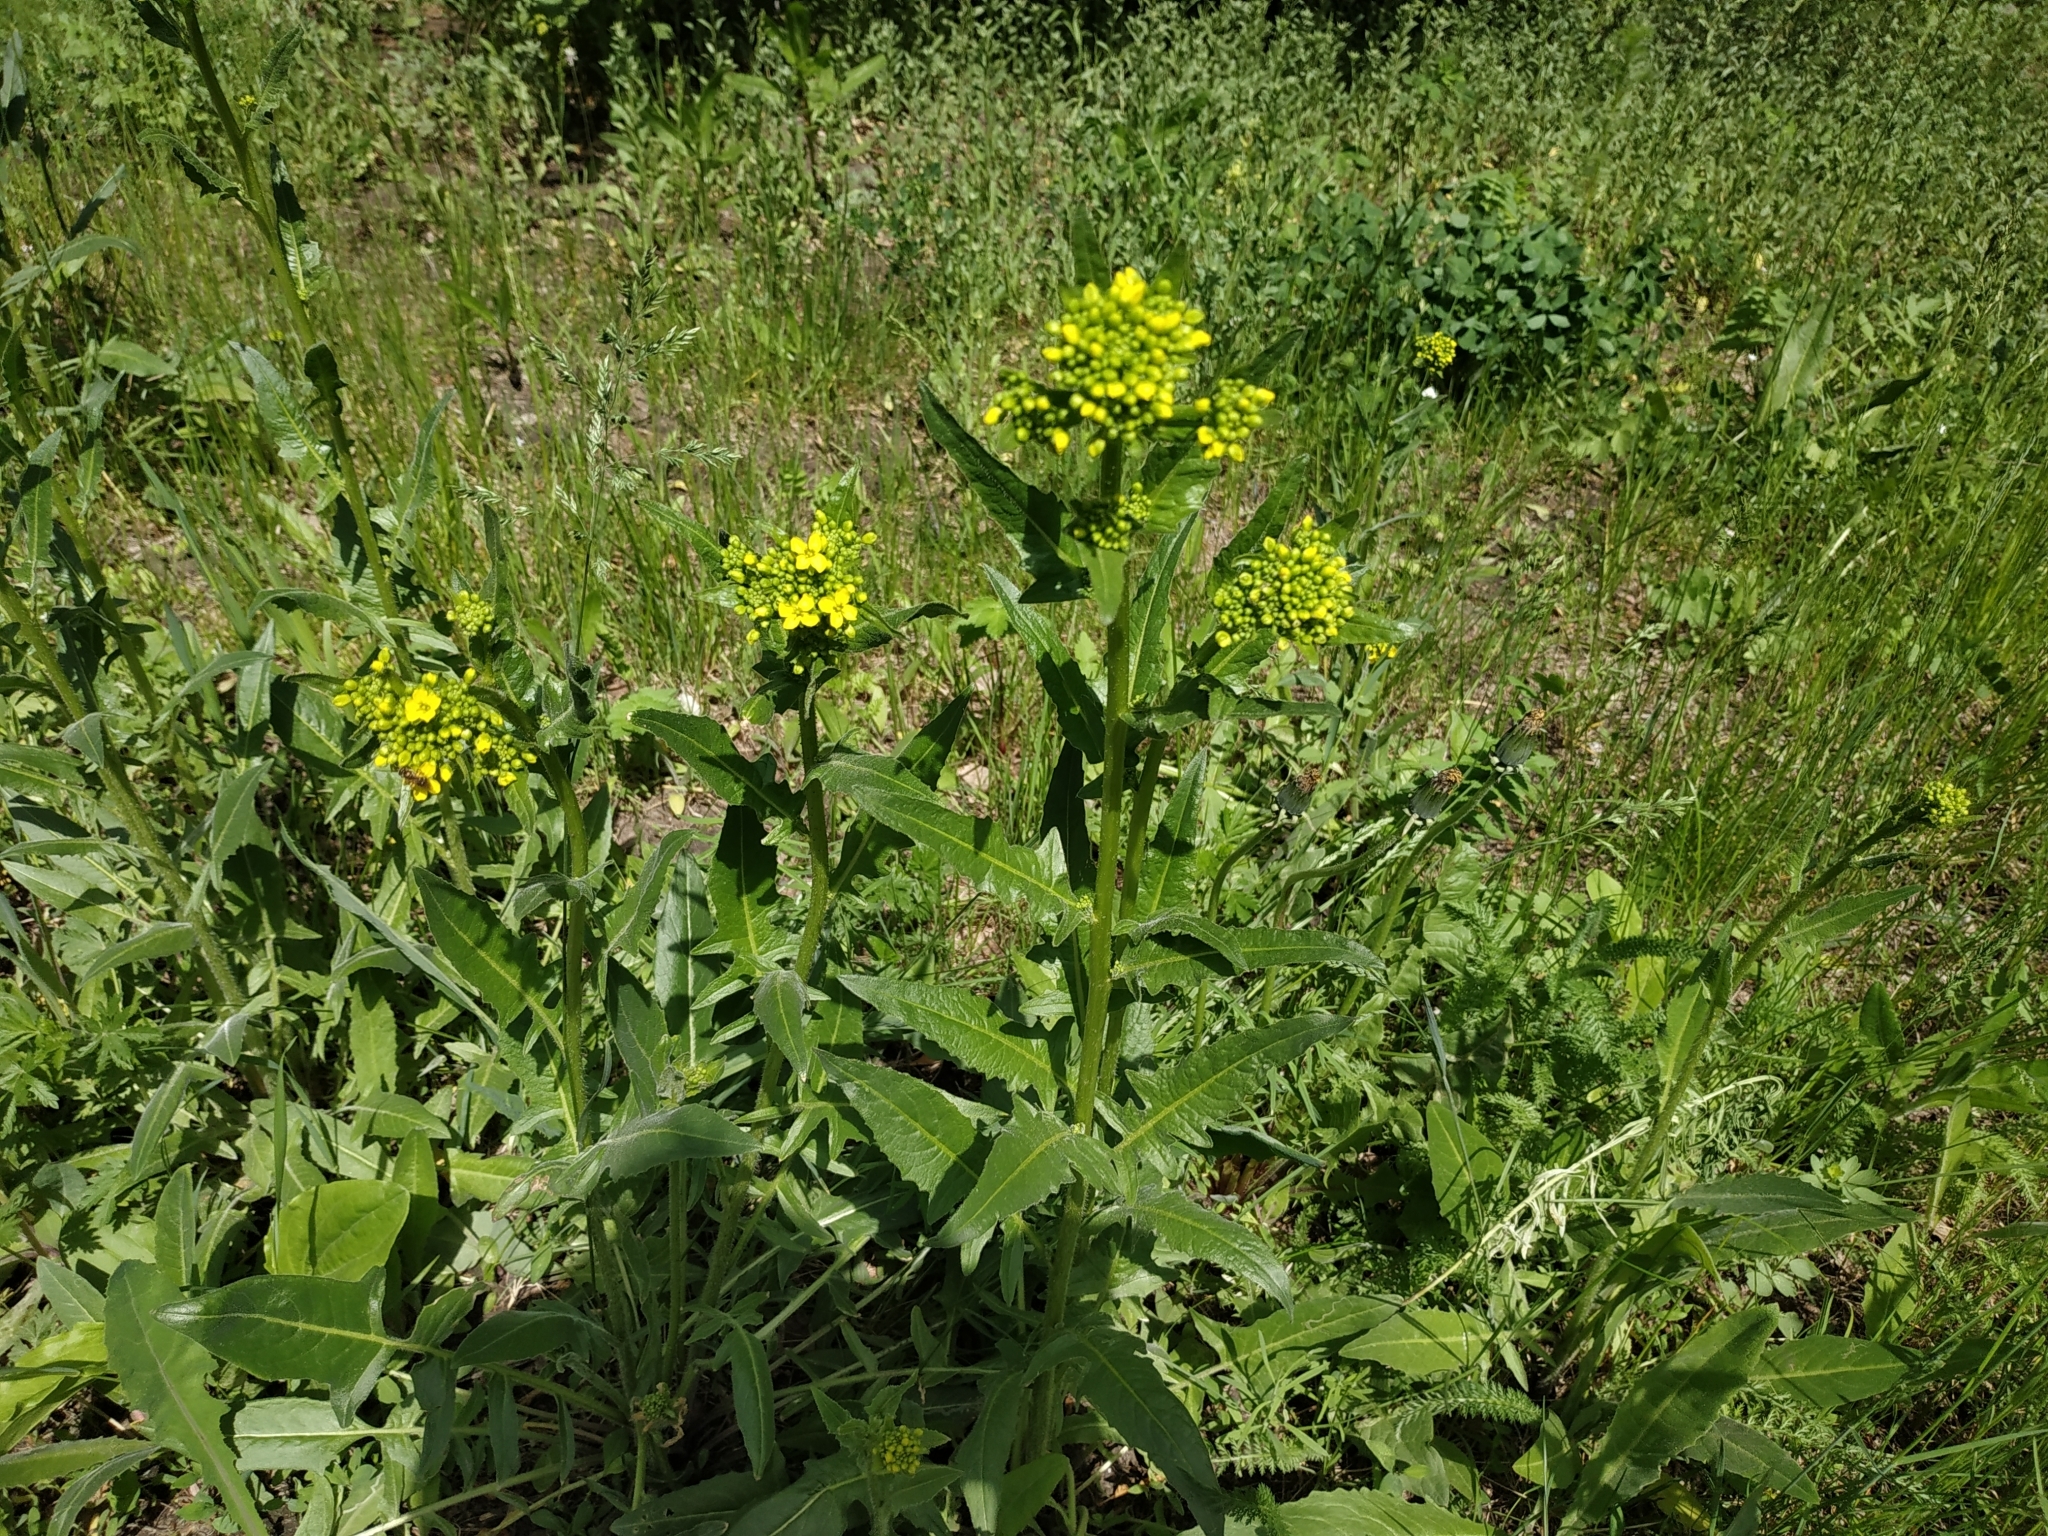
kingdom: Plantae
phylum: Tracheophyta
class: Magnoliopsida
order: Brassicales
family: Brassicaceae
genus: Bunias
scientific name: Bunias orientalis
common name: Warty-cabbage
